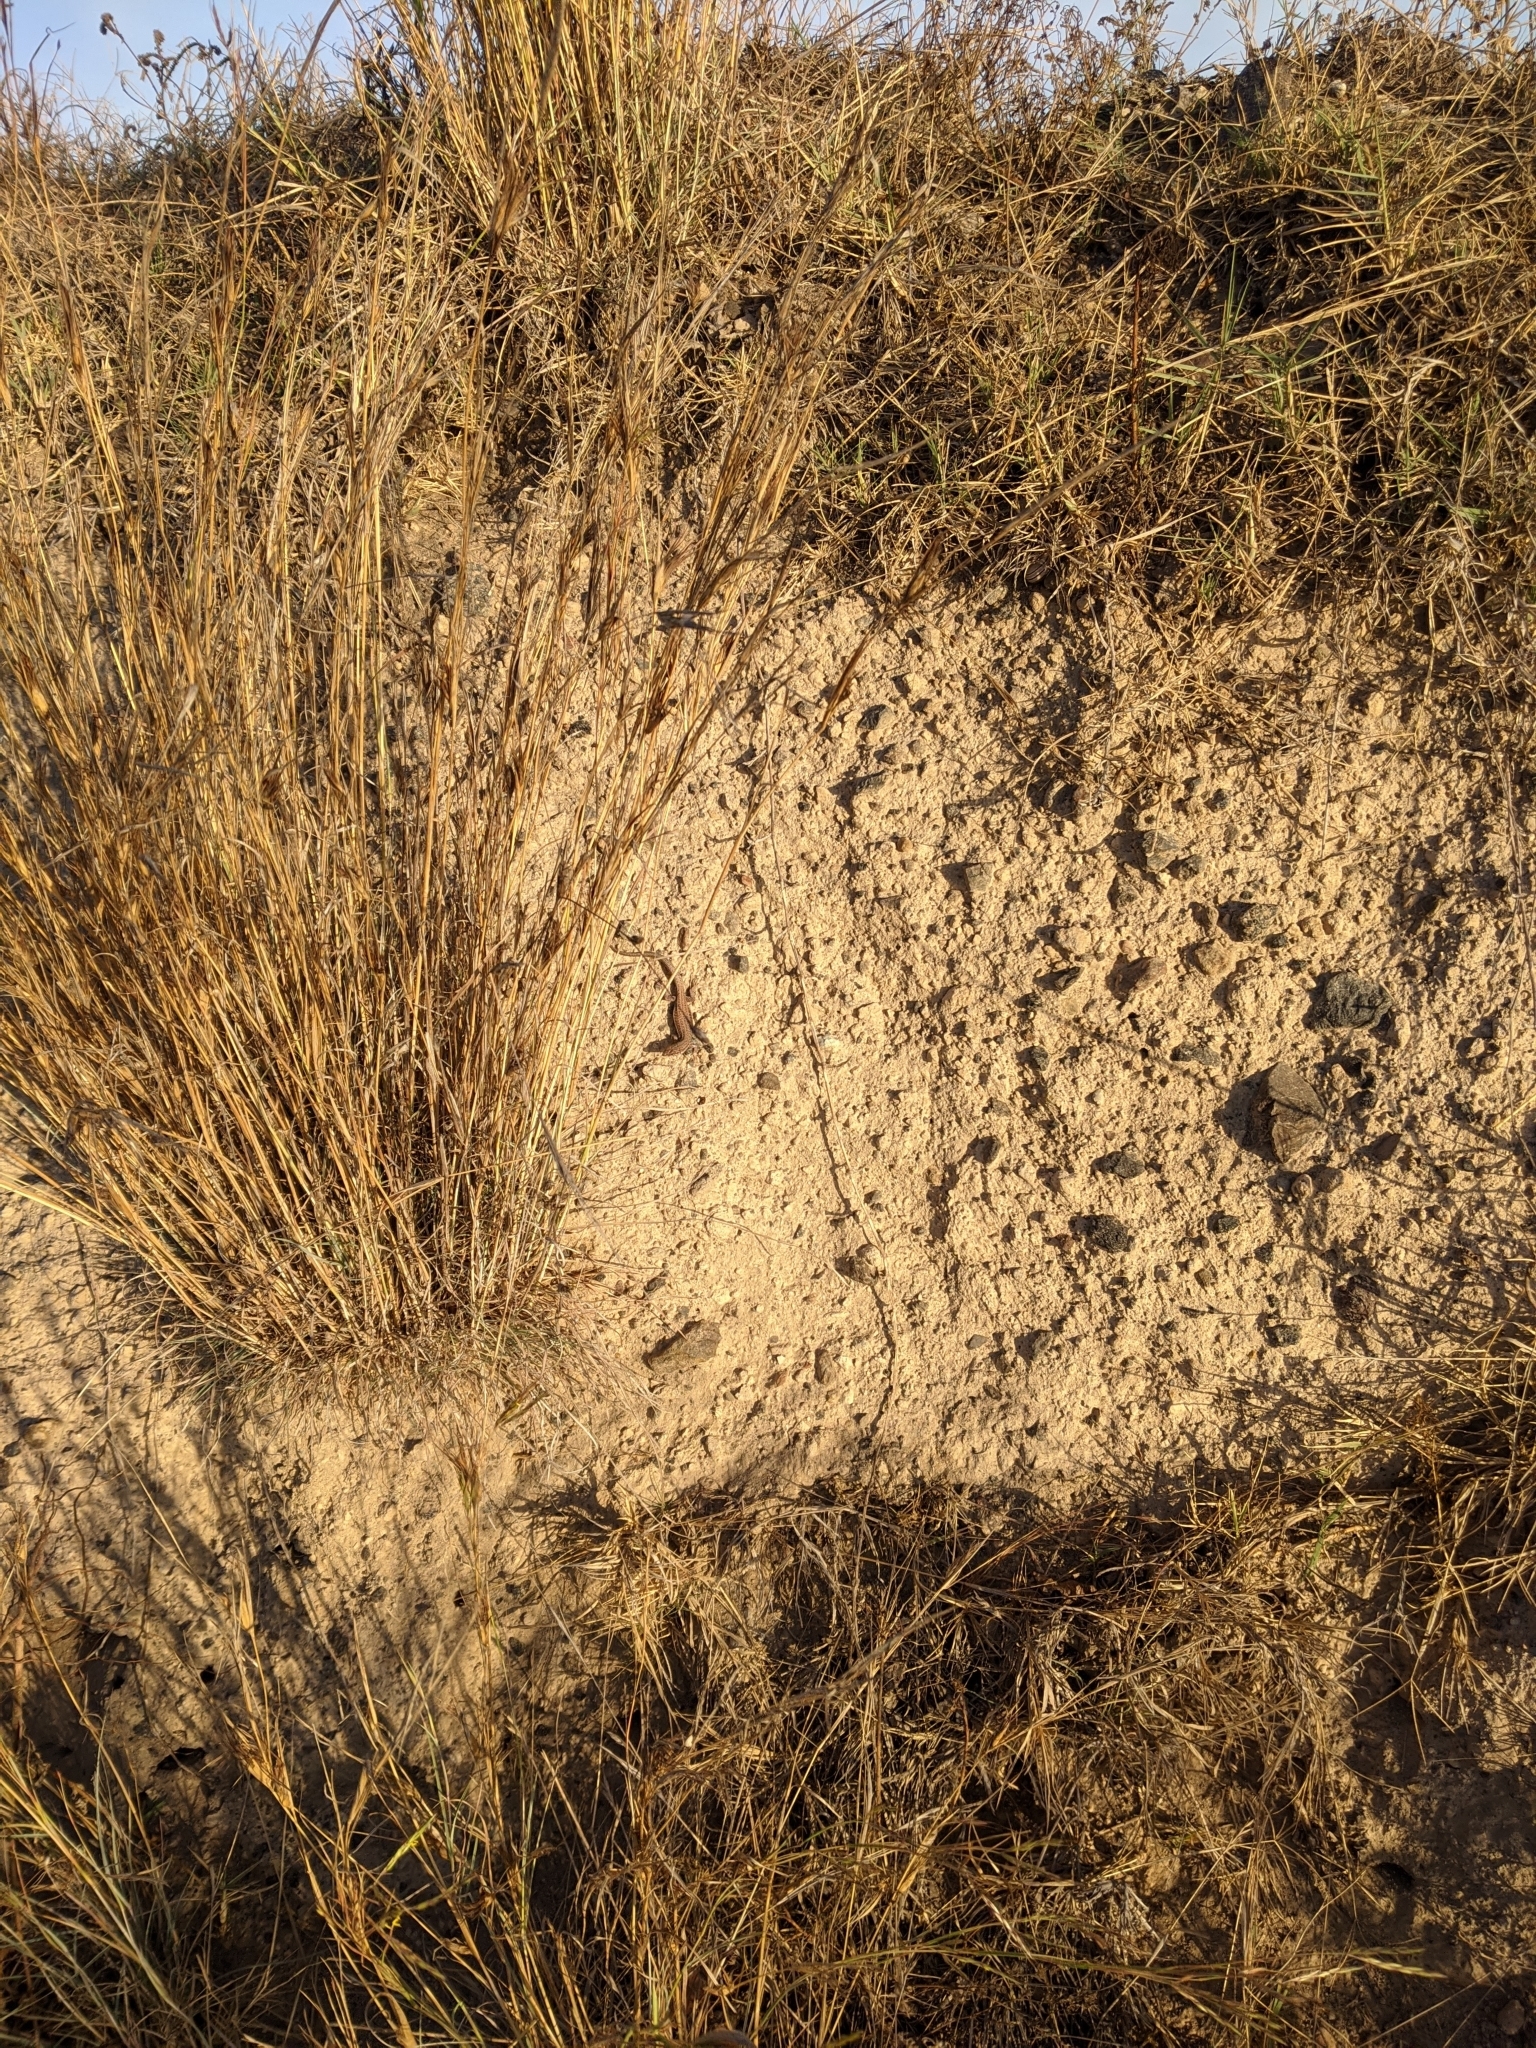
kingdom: Animalia
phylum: Chordata
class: Squamata
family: Lacertidae
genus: Podarcis
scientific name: Podarcis erhardii
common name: Erhard's wall lizard
